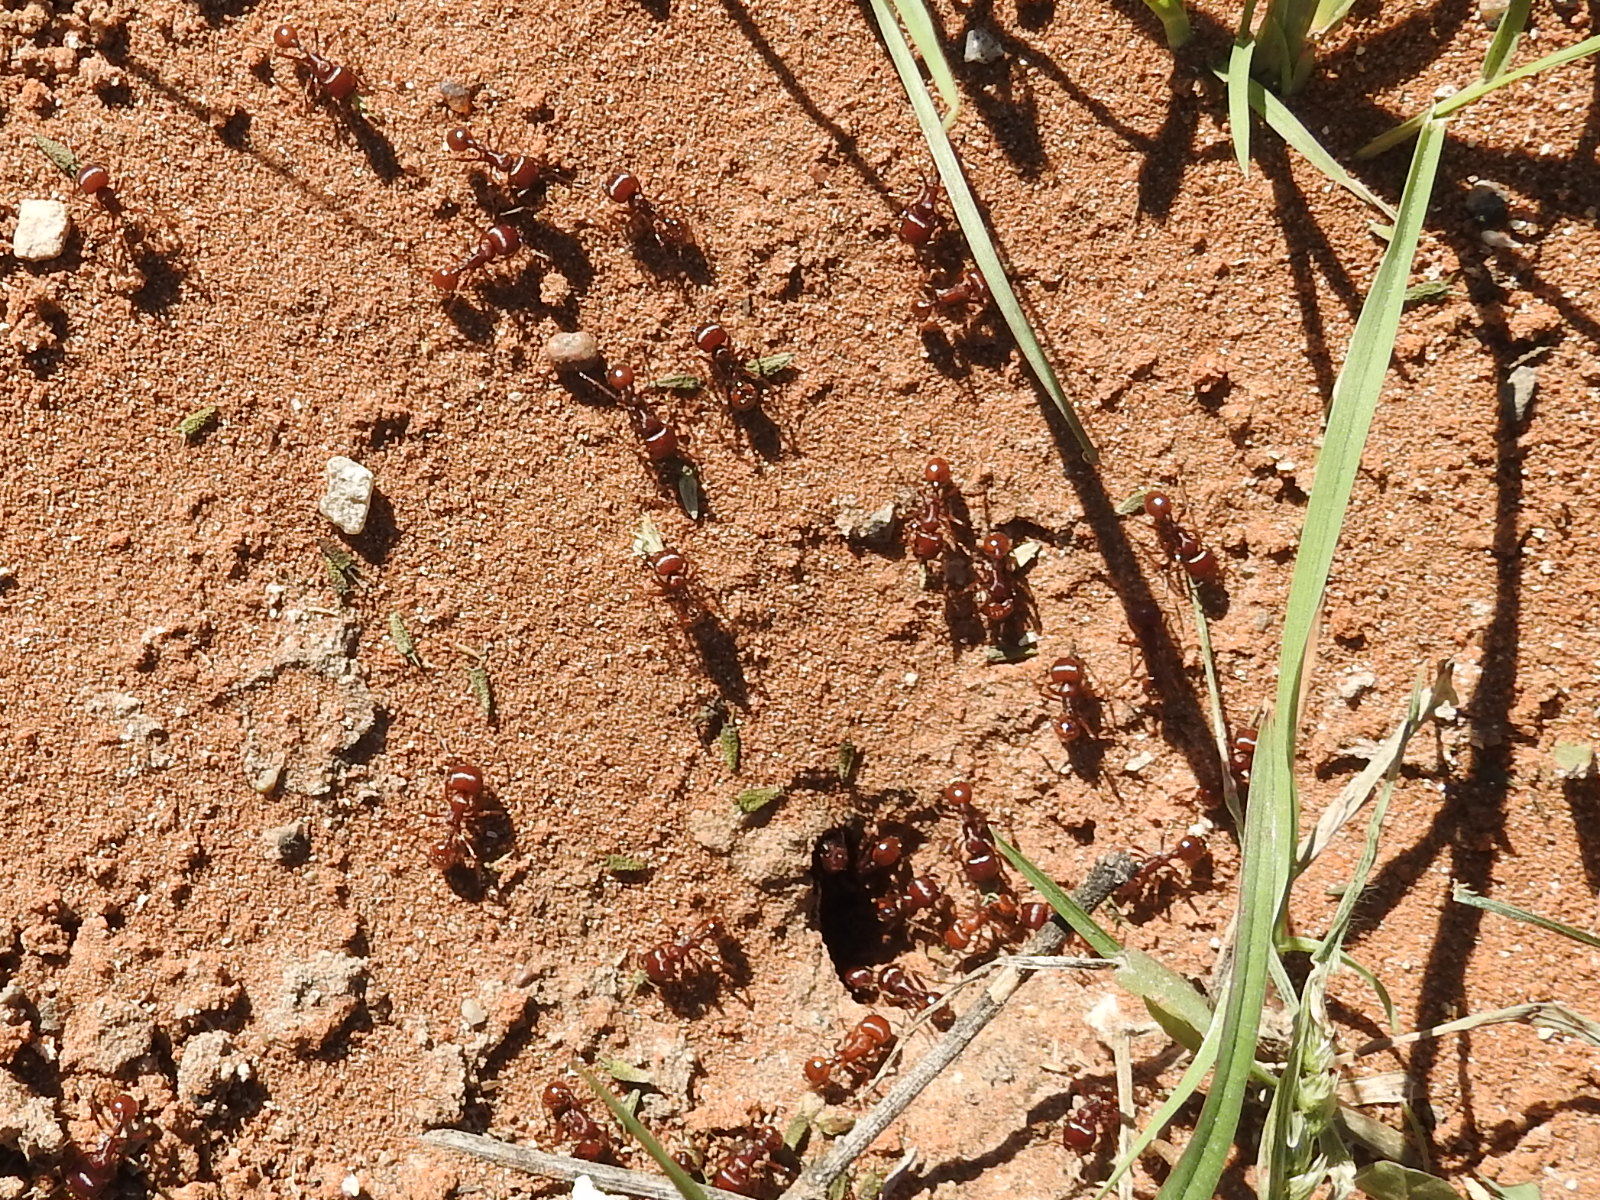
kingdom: Animalia
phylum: Arthropoda
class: Insecta
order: Hymenoptera
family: Formicidae
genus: Pogonomyrmex
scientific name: Pogonomyrmex barbatus
